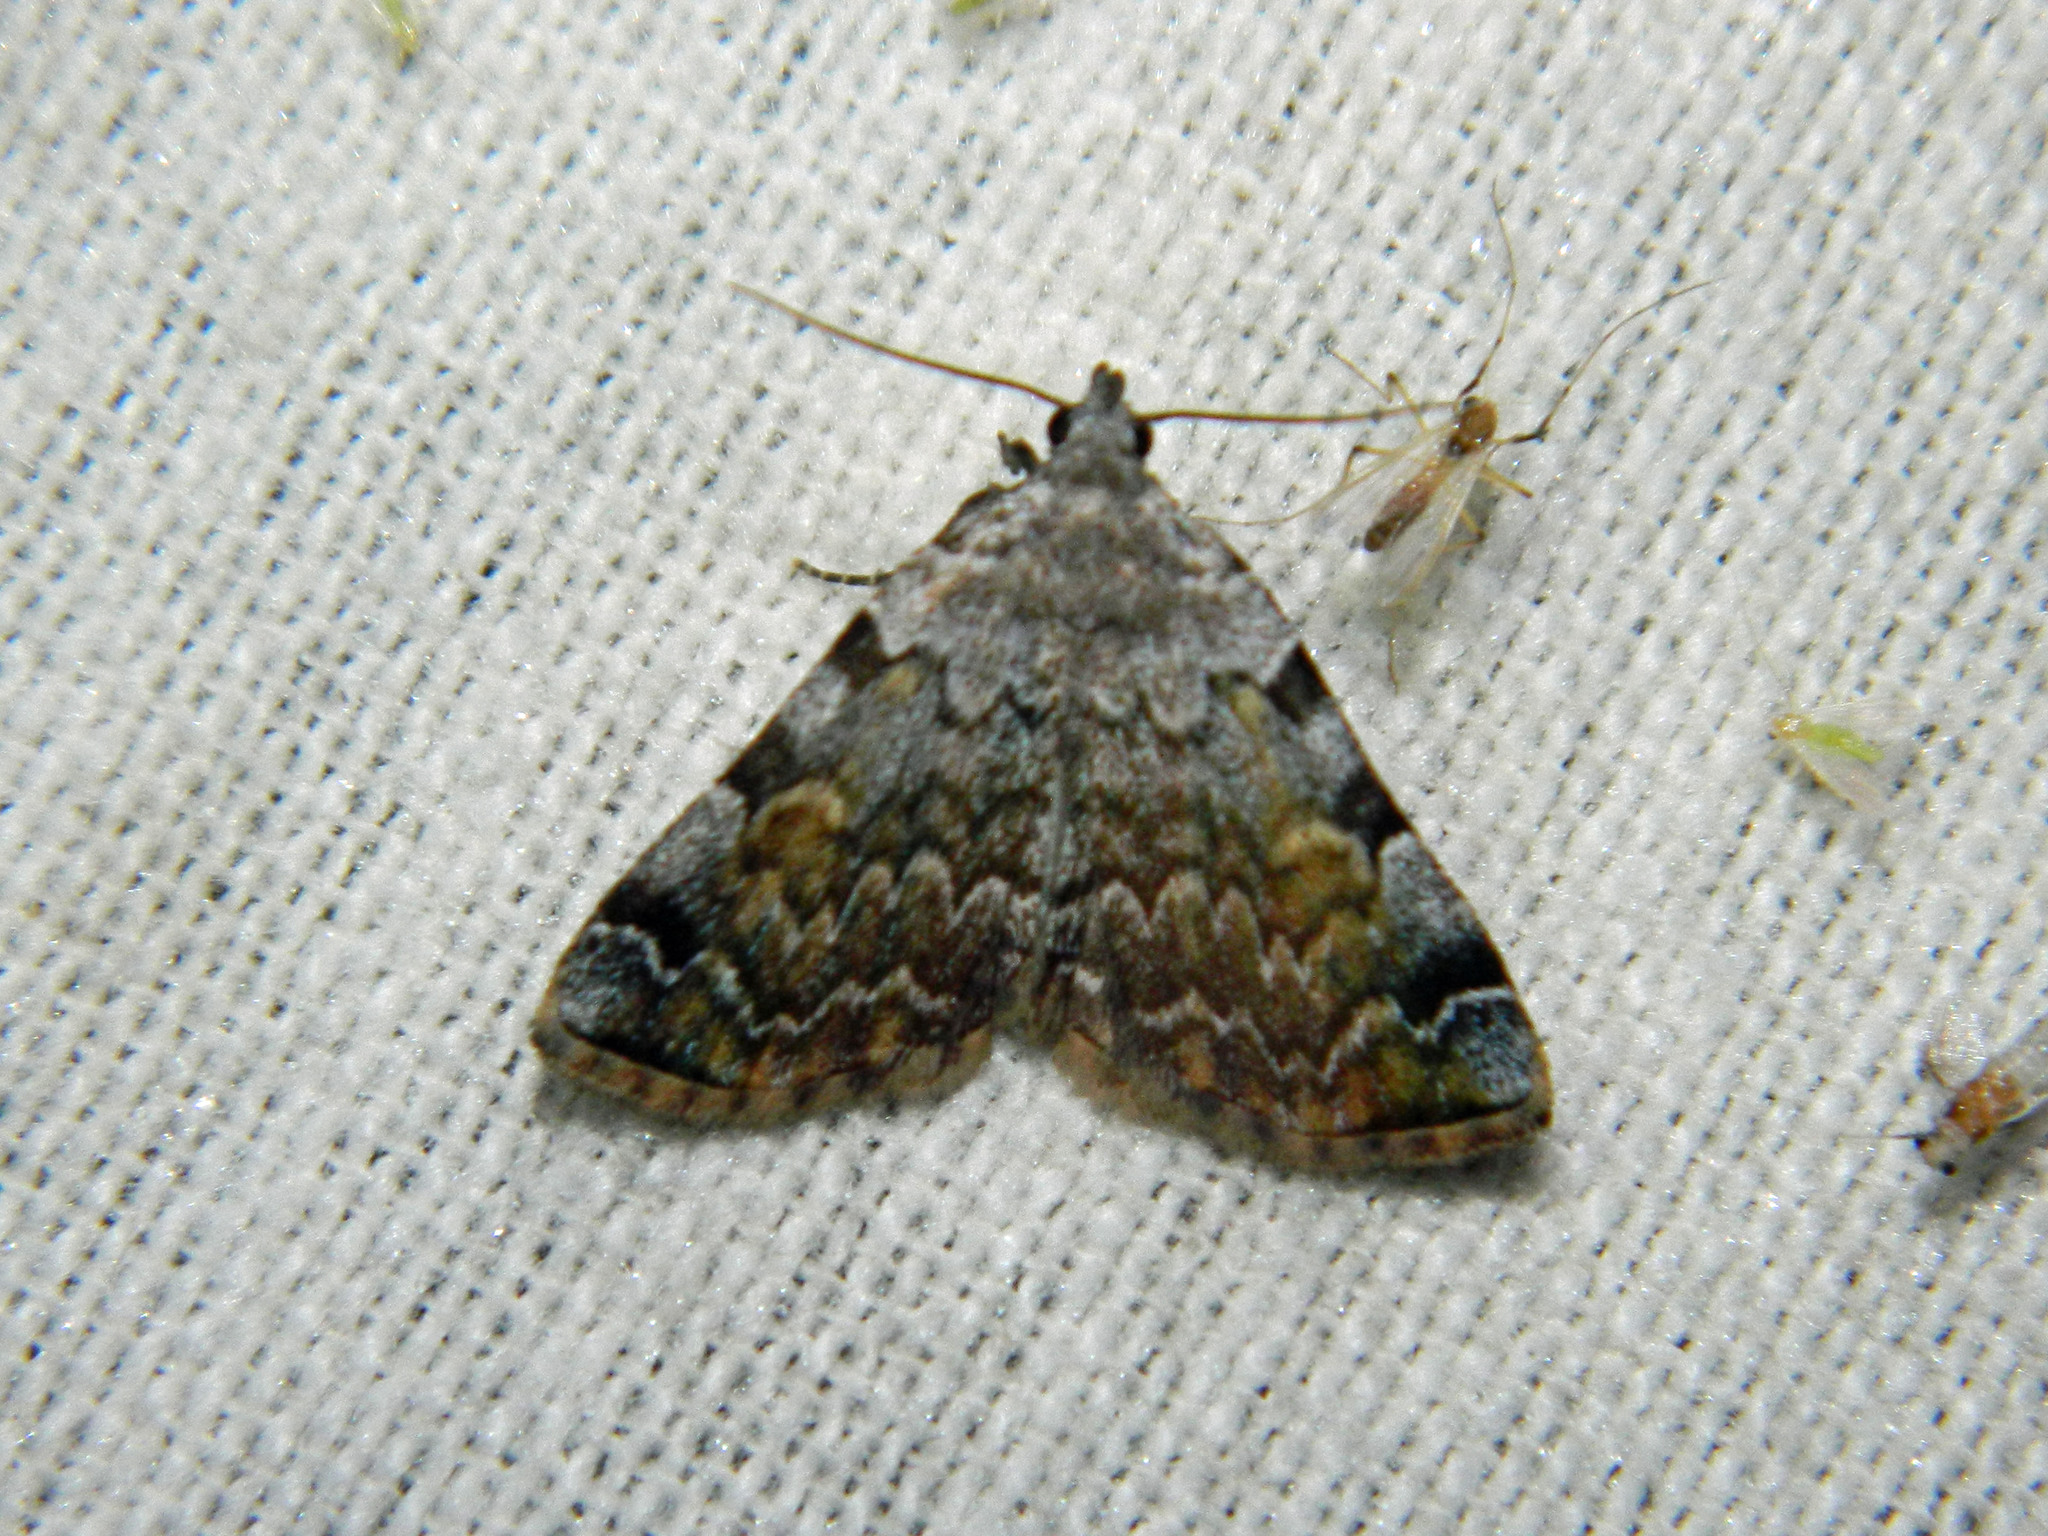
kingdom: Animalia
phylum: Arthropoda
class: Insecta
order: Lepidoptera
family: Erebidae
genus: Idia
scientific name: Idia americalis
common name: American idia moth
